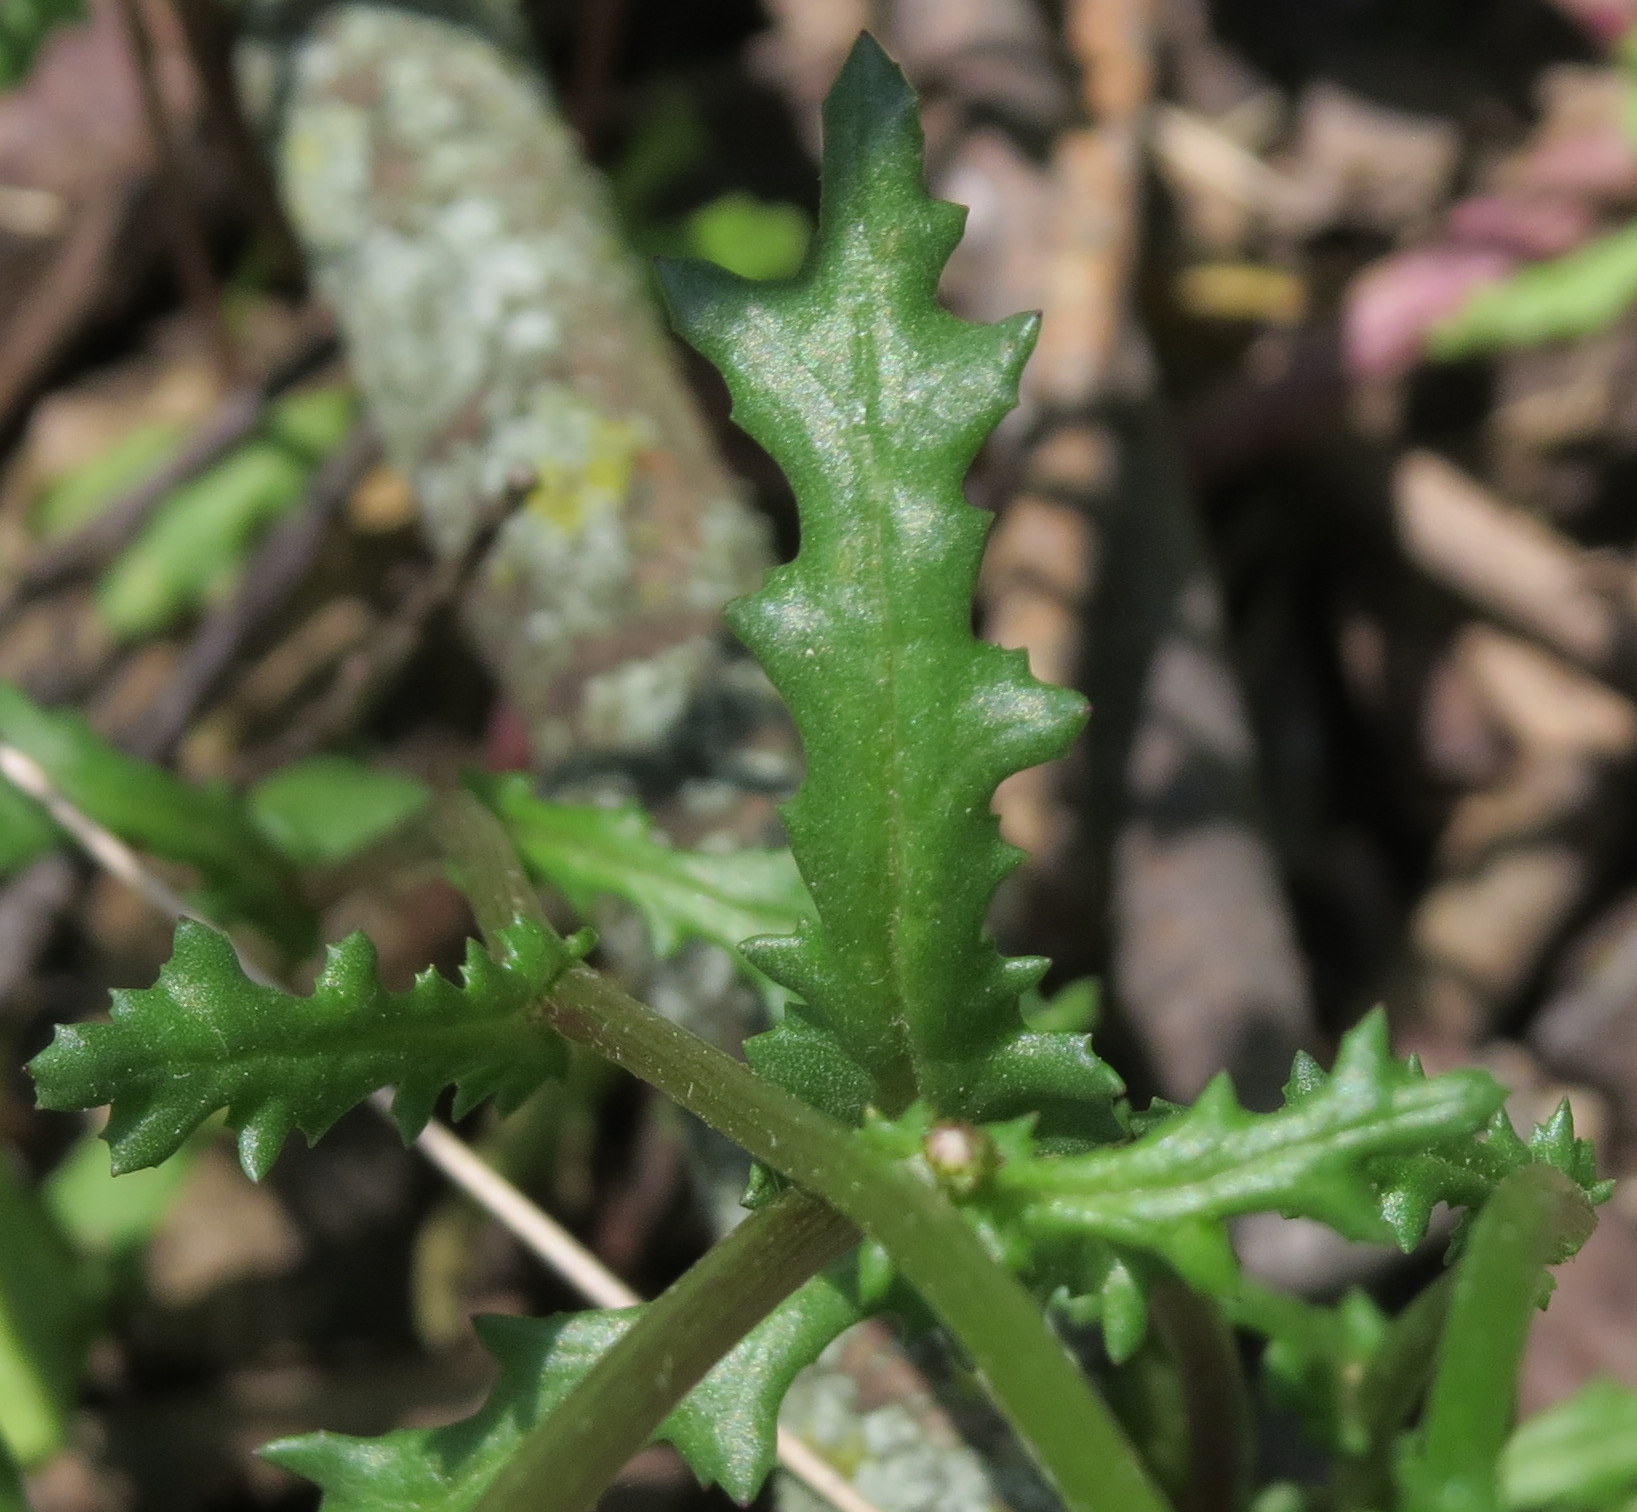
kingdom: Plantae
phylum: Tracheophyta
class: Magnoliopsida
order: Asterales
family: Asteraceae
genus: Senecio
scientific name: Senecio vulgaris
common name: Old-man-in-the-spring
